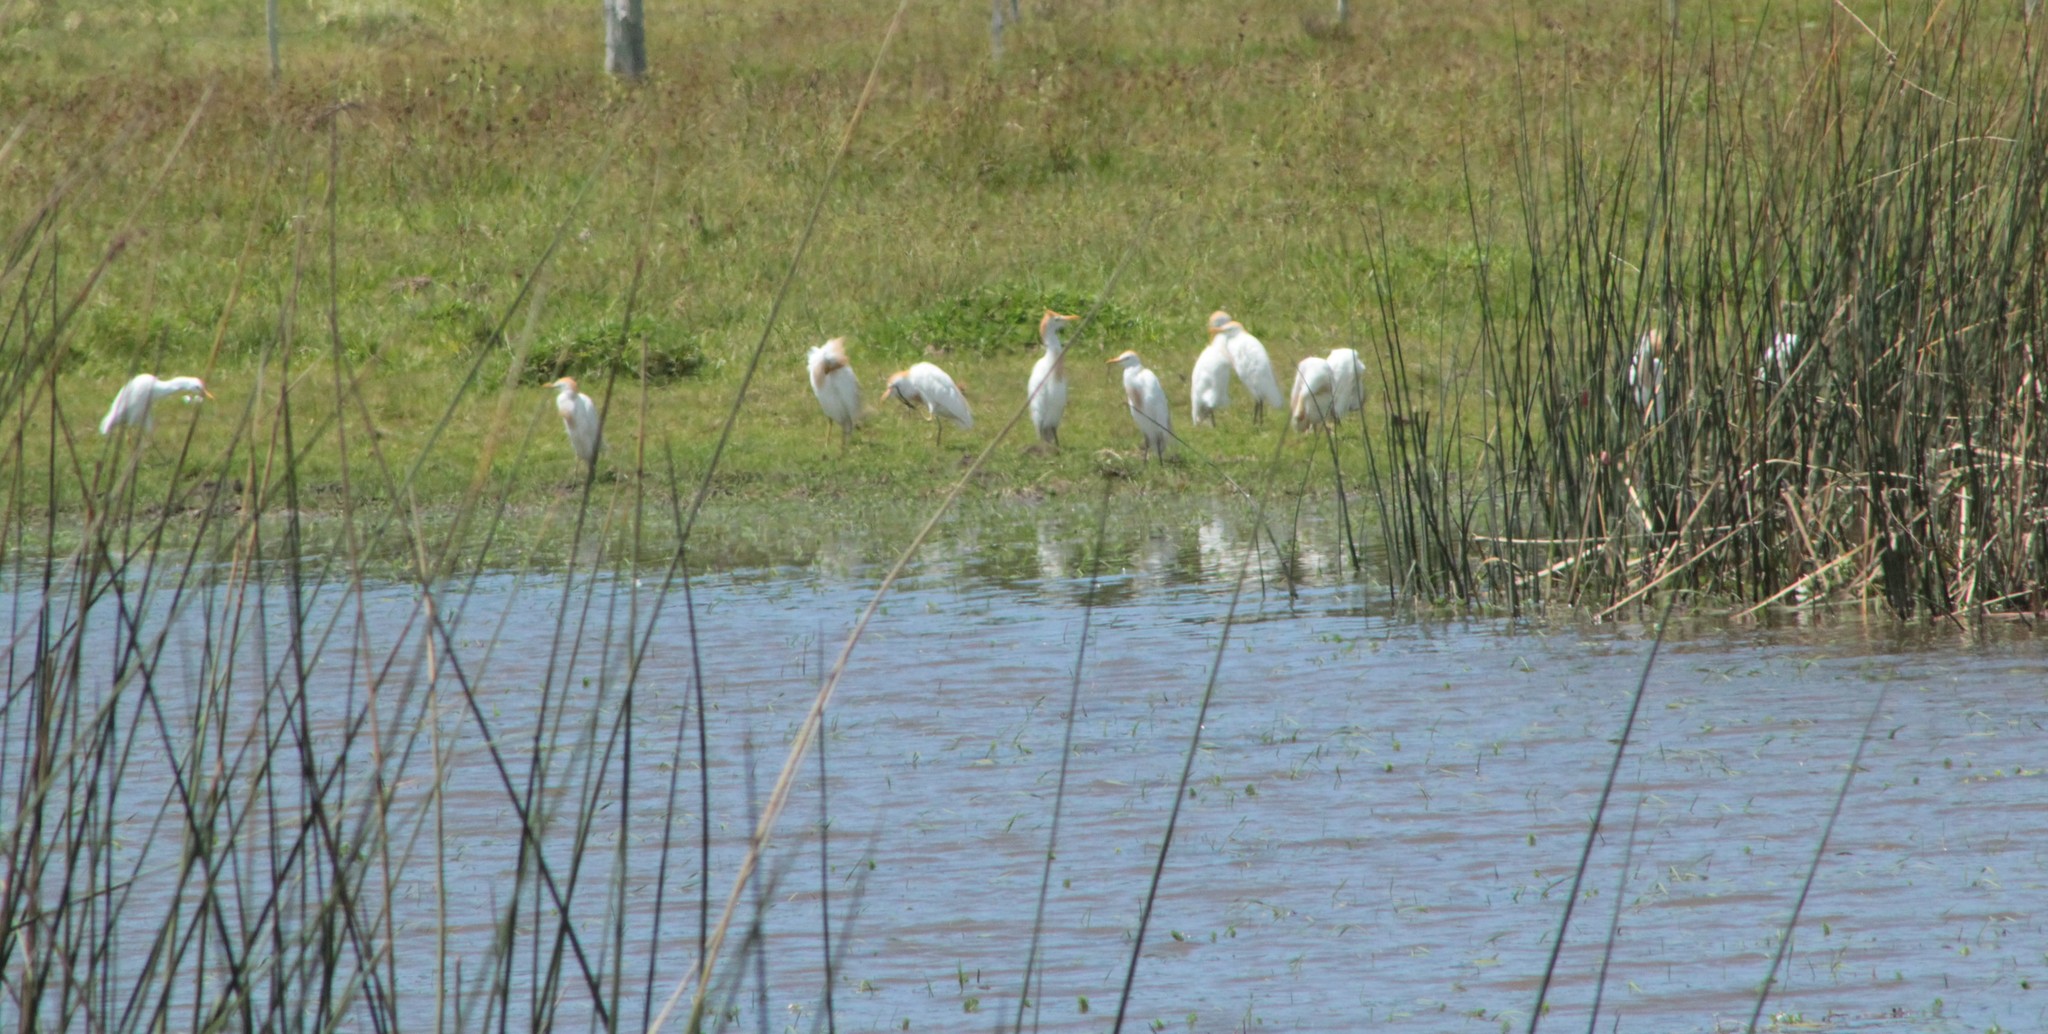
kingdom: Animalia
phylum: Chordata
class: Aves
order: Pelecaniformes
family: Ardeidae
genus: Bubulcus
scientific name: Bubulcus ibis
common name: Cattle egret
